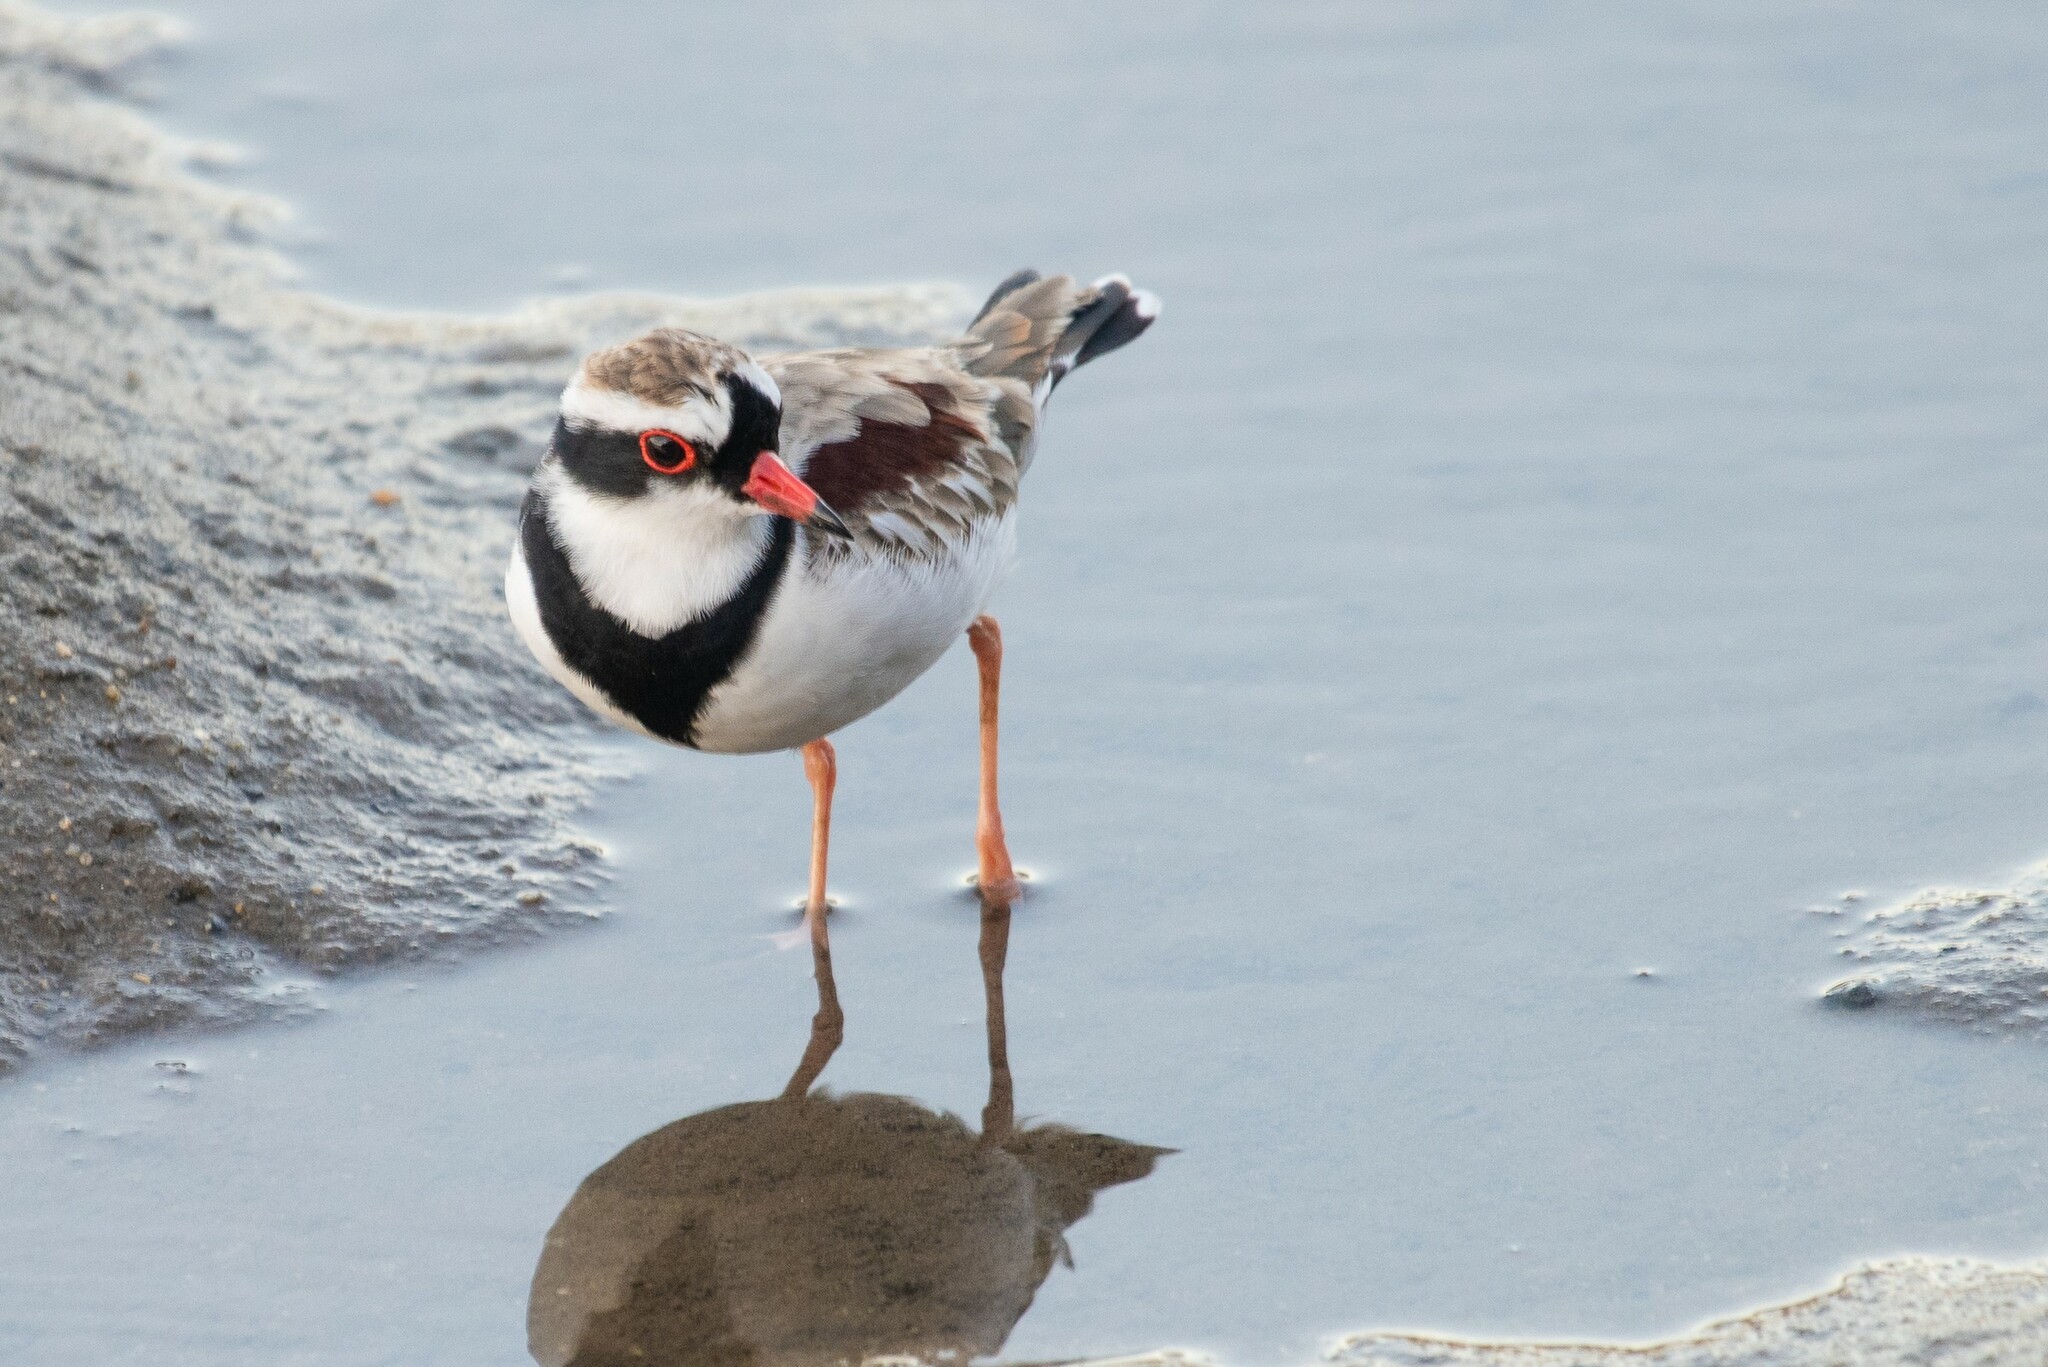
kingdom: Animalia
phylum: Chordata
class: Aves
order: Charadriiformes
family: Charadriidae
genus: Elseyornis
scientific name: Elseyornis melanops
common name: Black-fronted dotterel
